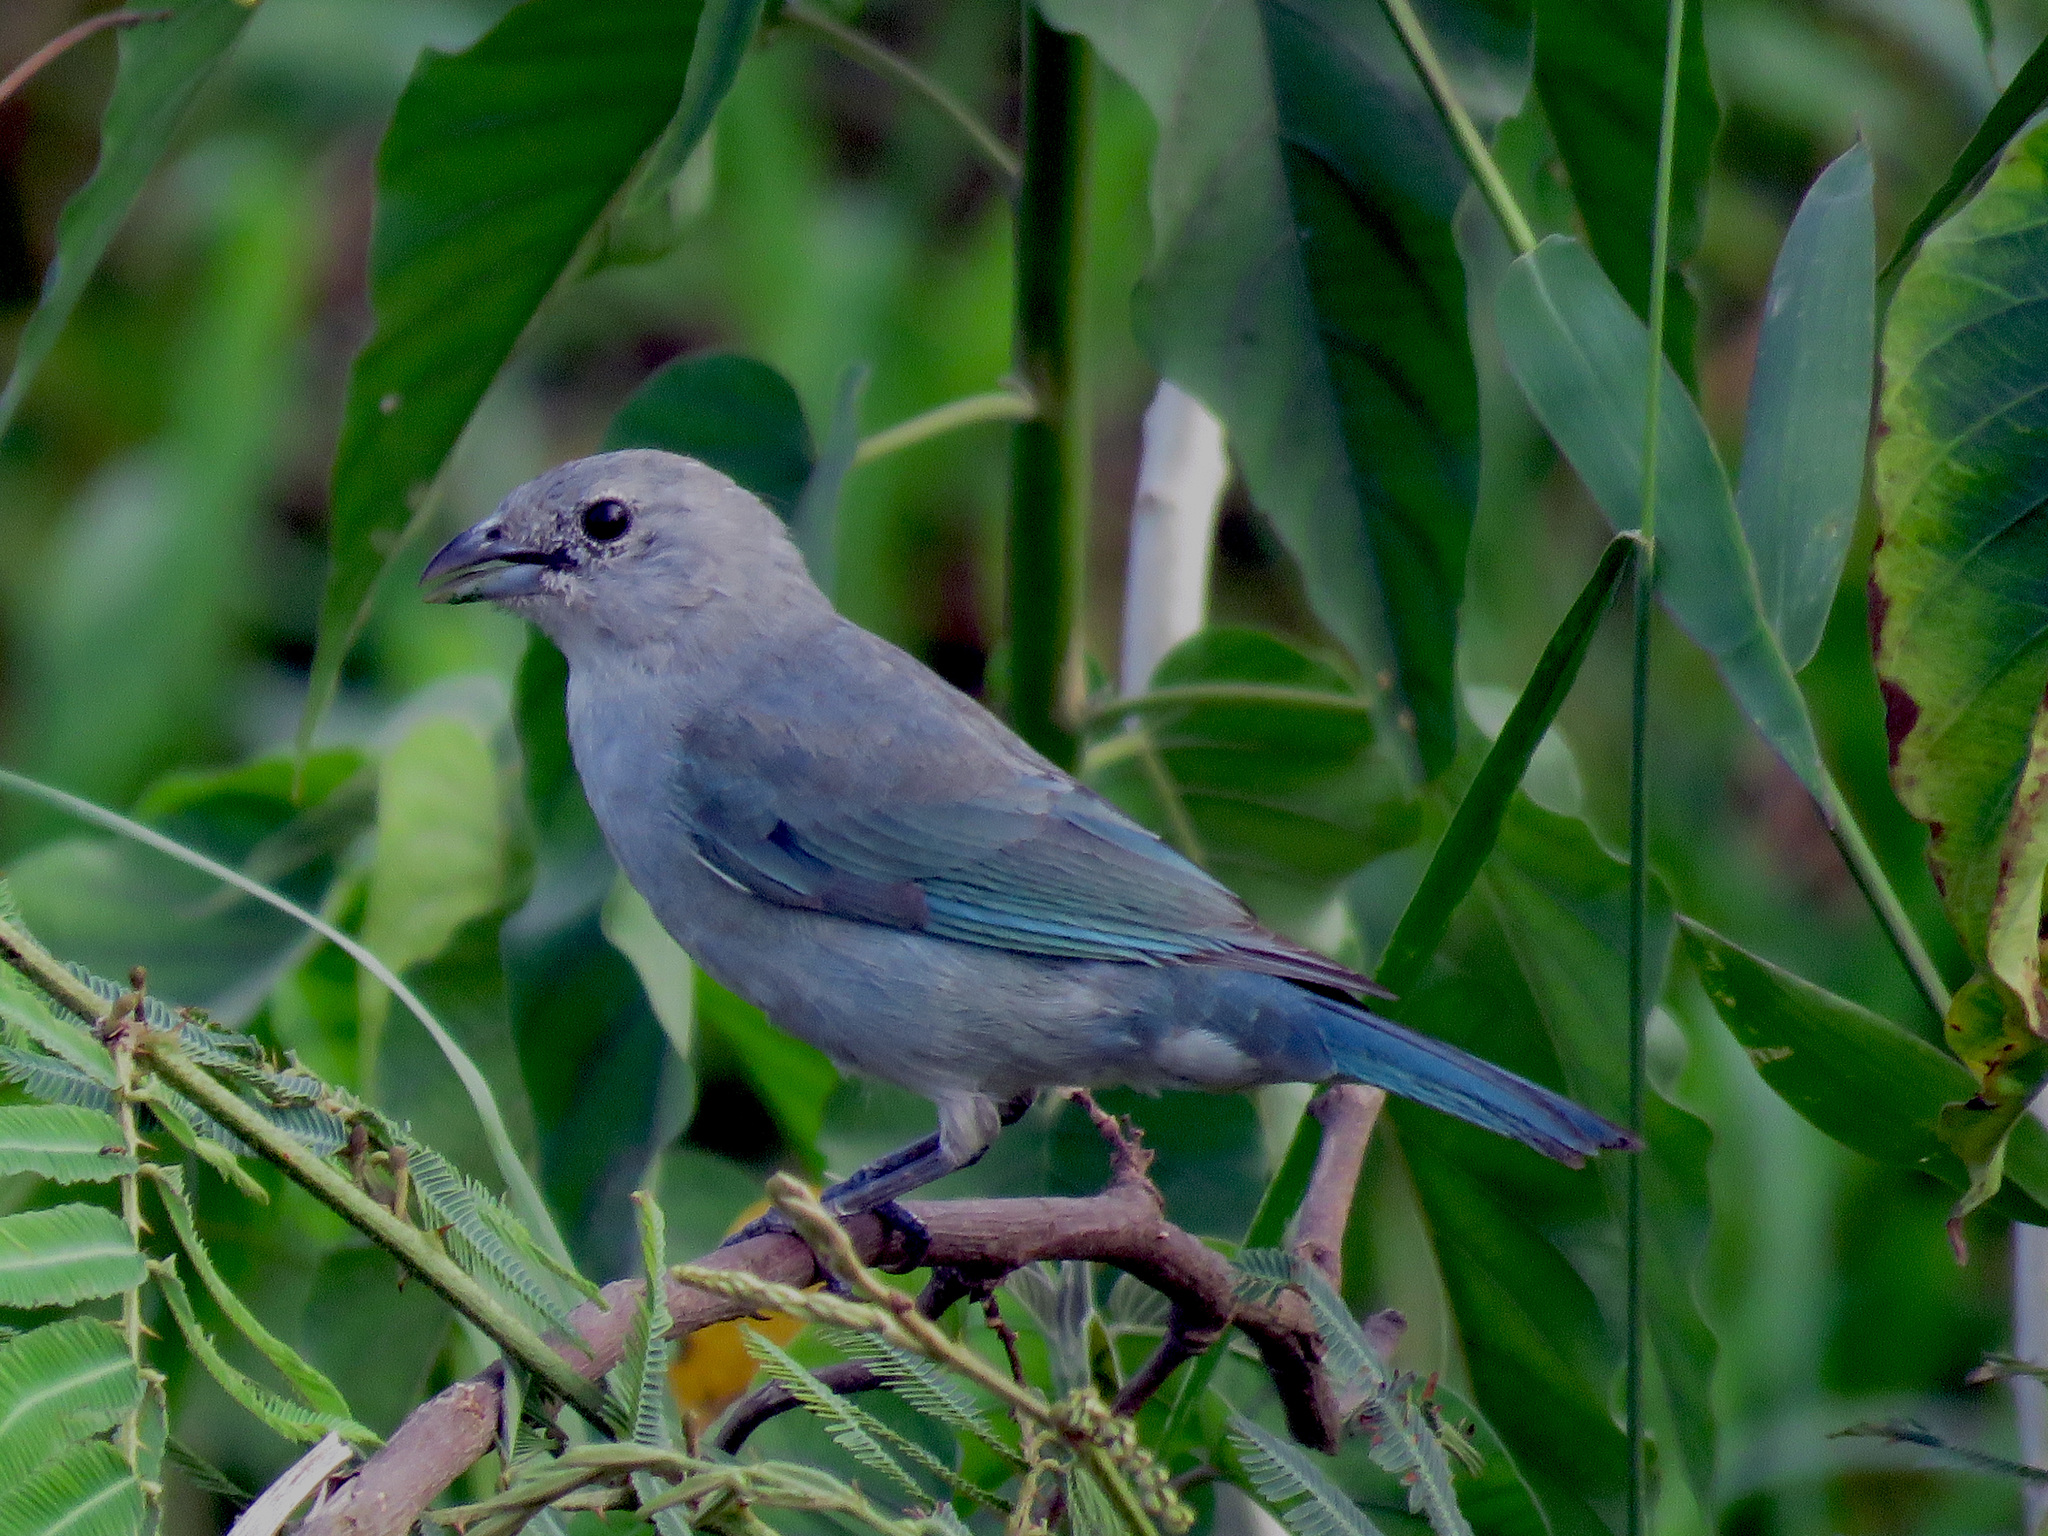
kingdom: Animalia
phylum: Chordata
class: Aves
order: Passeriformes
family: Thraupidae
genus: Thraupis
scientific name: Thraupis sayaca
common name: Sayaca tanager
